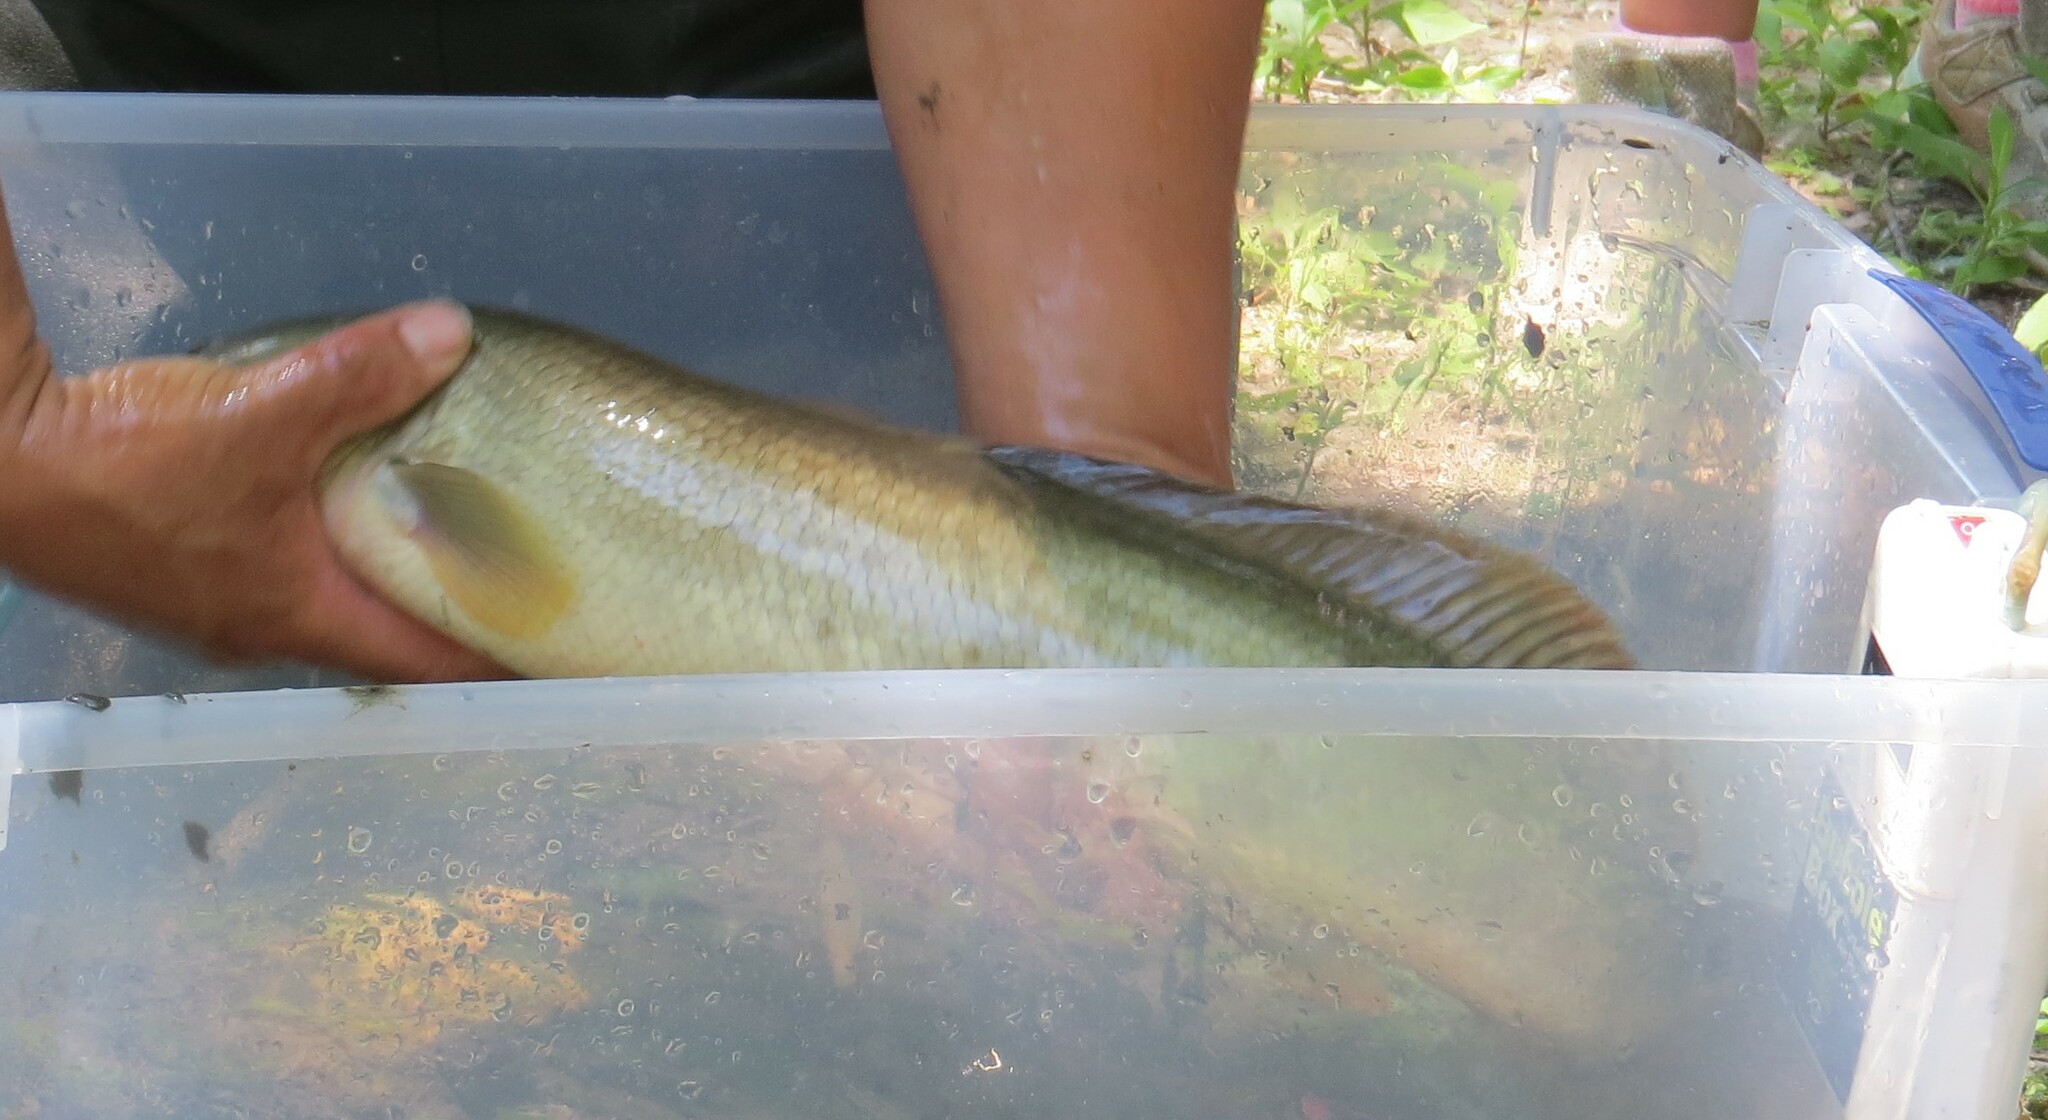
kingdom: Animalia
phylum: Chordata
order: Amiiformes
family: Amiidae
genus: Amia
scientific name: Amia calva
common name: Bowfin
